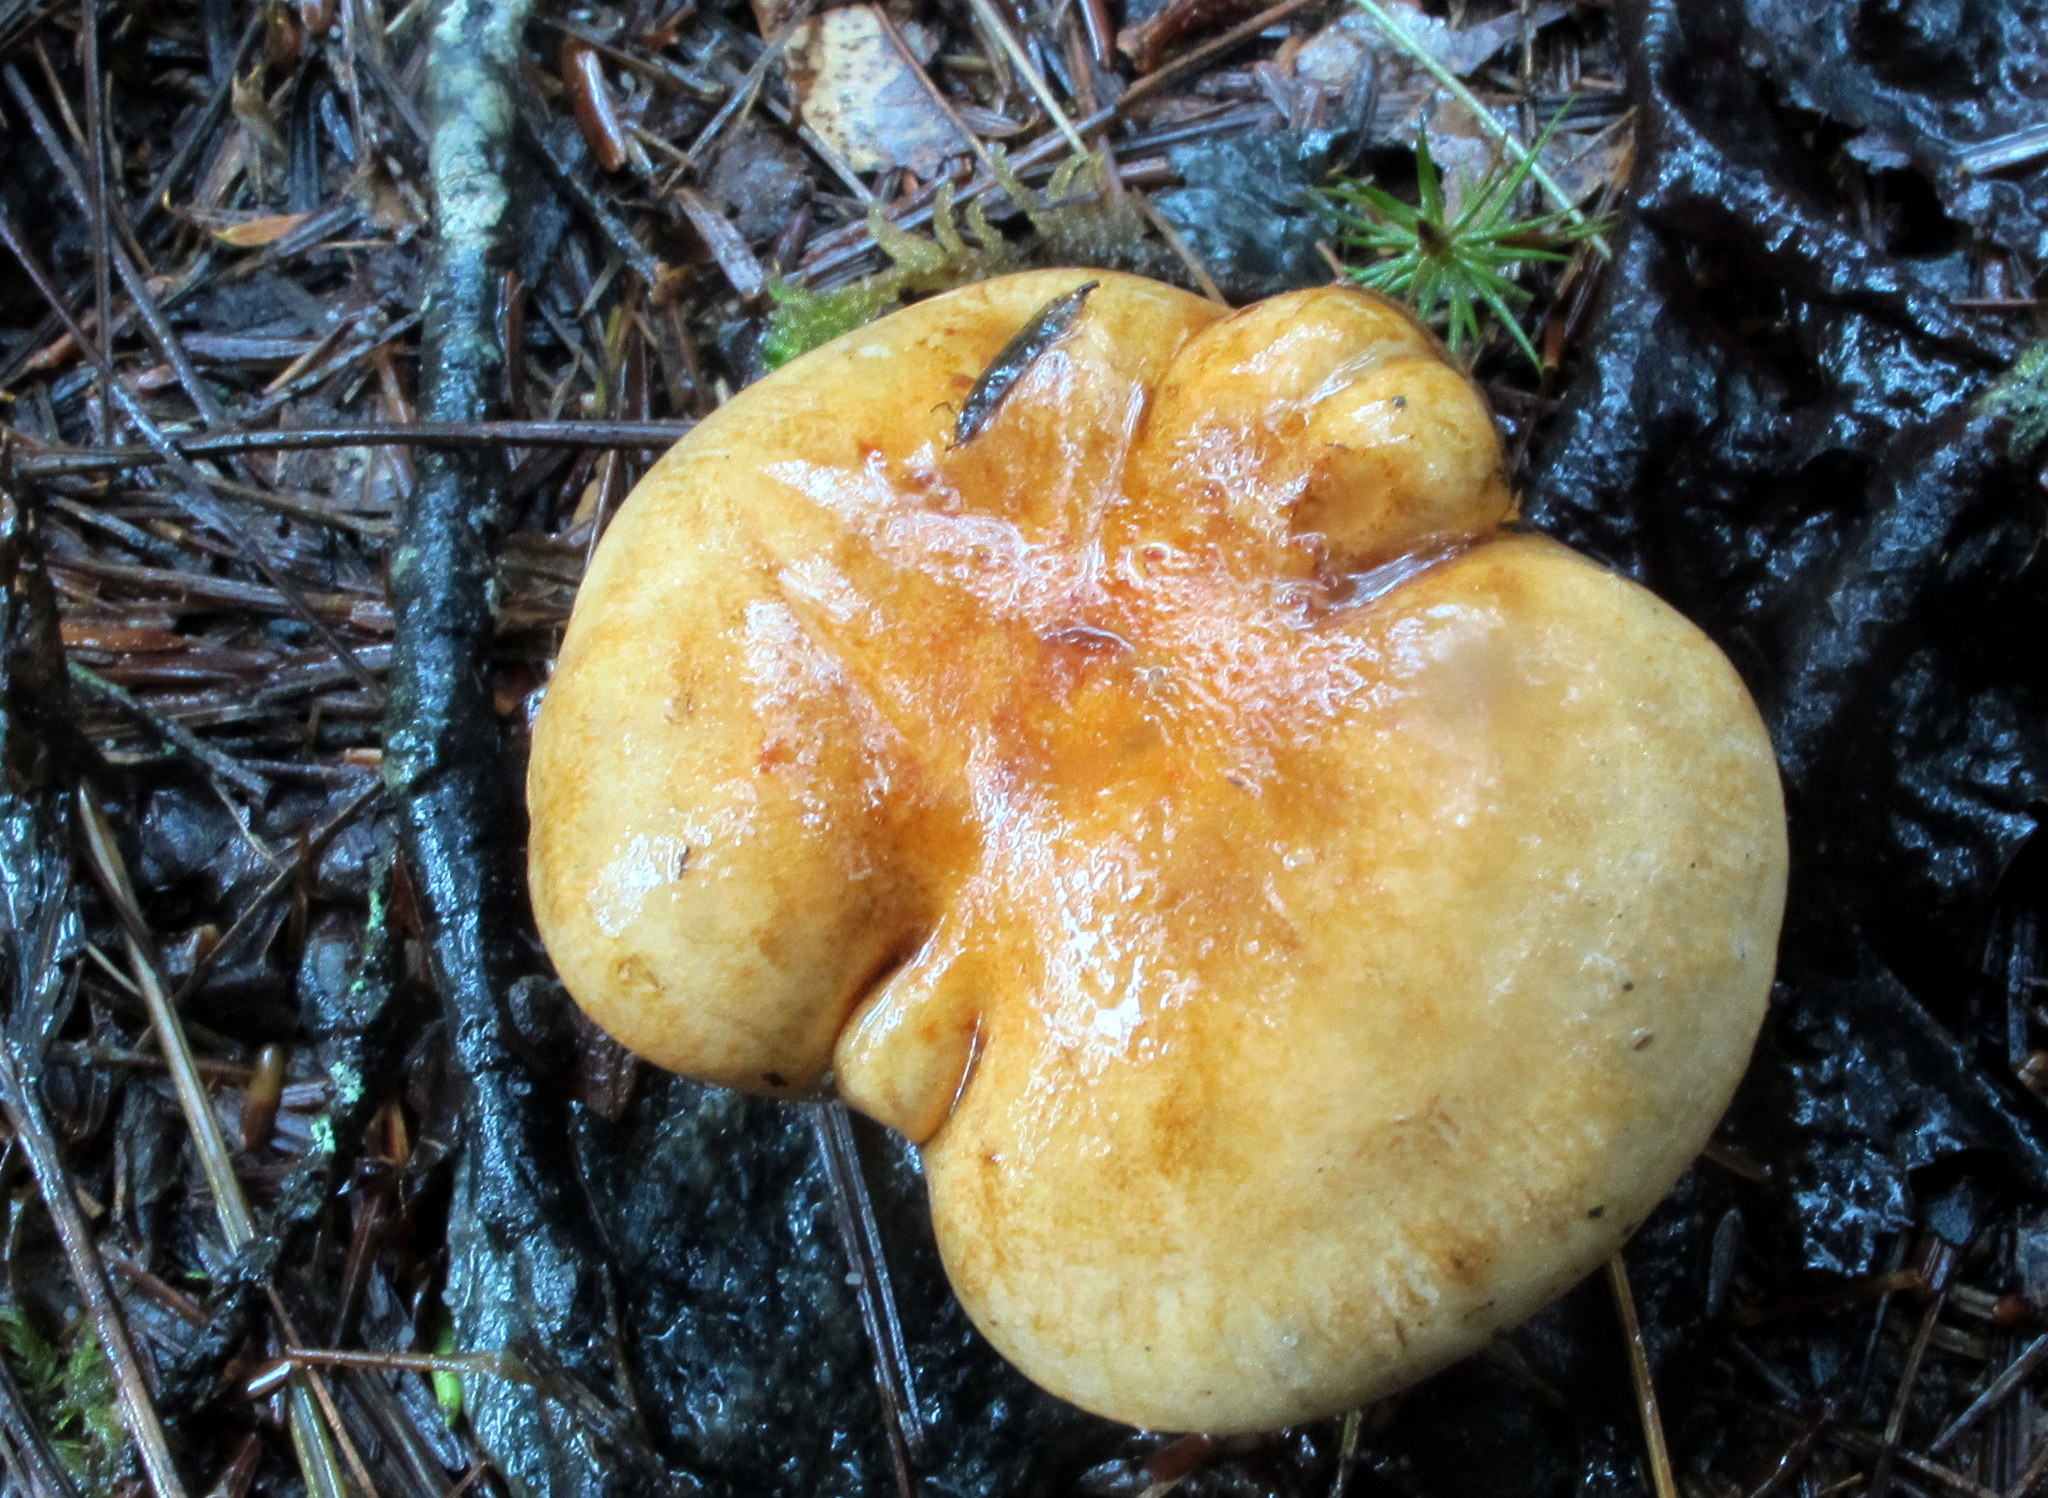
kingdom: Fungi
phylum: Basidiomycota
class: Agaricomycetes
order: Agaricales
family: Tricholomataceae
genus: Tricholoma
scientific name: Tricholoma aurantium
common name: Orange knight
